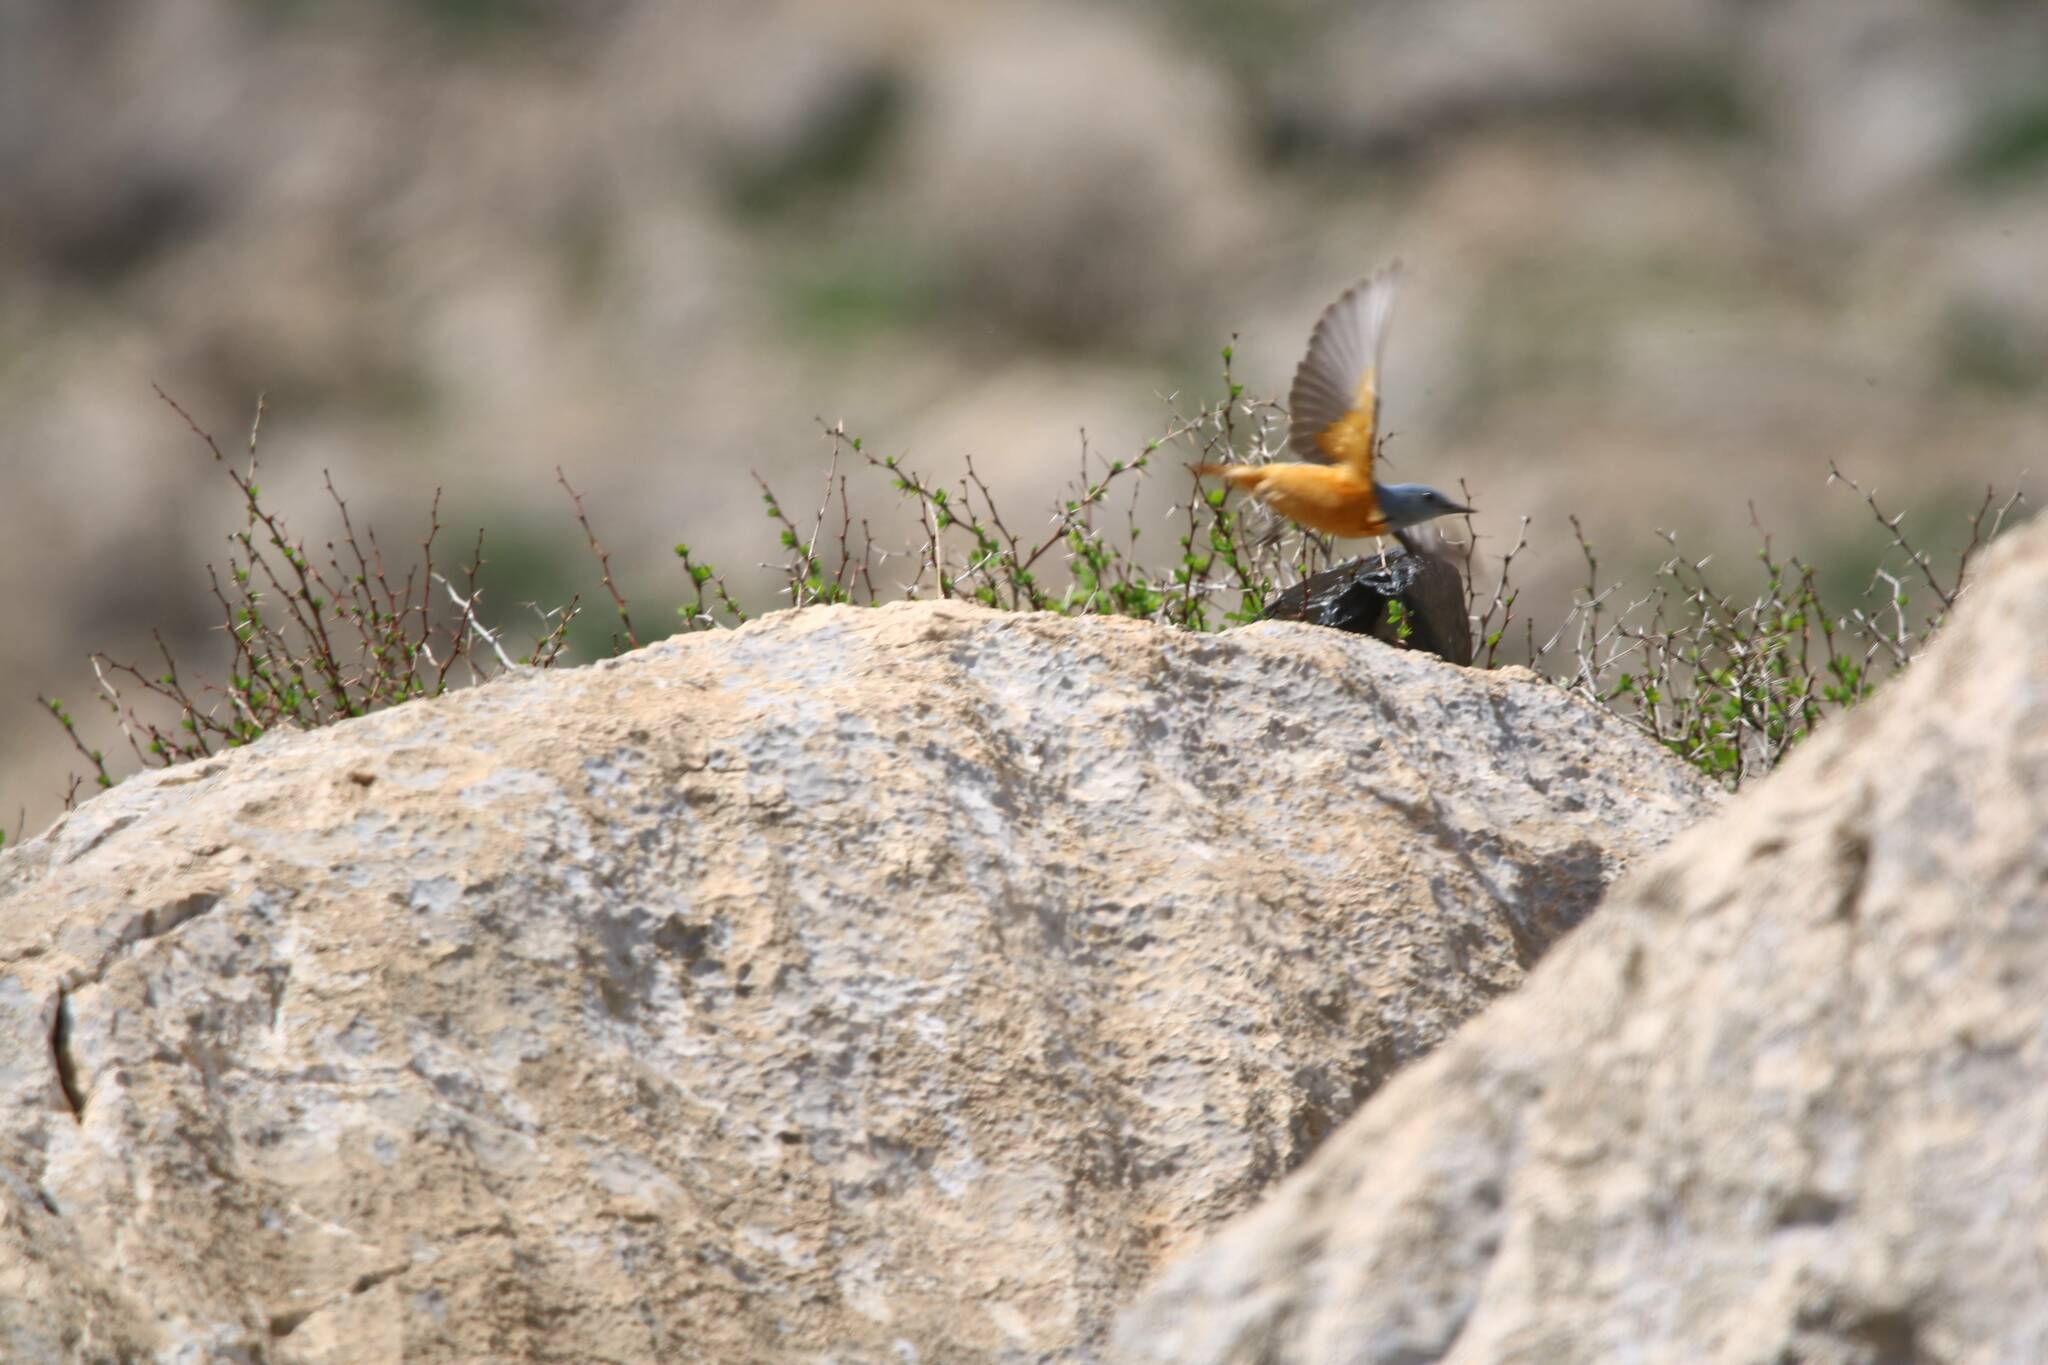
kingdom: Animalia
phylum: Chordata
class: Aves
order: Passeriformes
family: Muscicapidae
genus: Monticola
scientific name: Monticola saxatilis
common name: Rufous-tailed rock thrush
